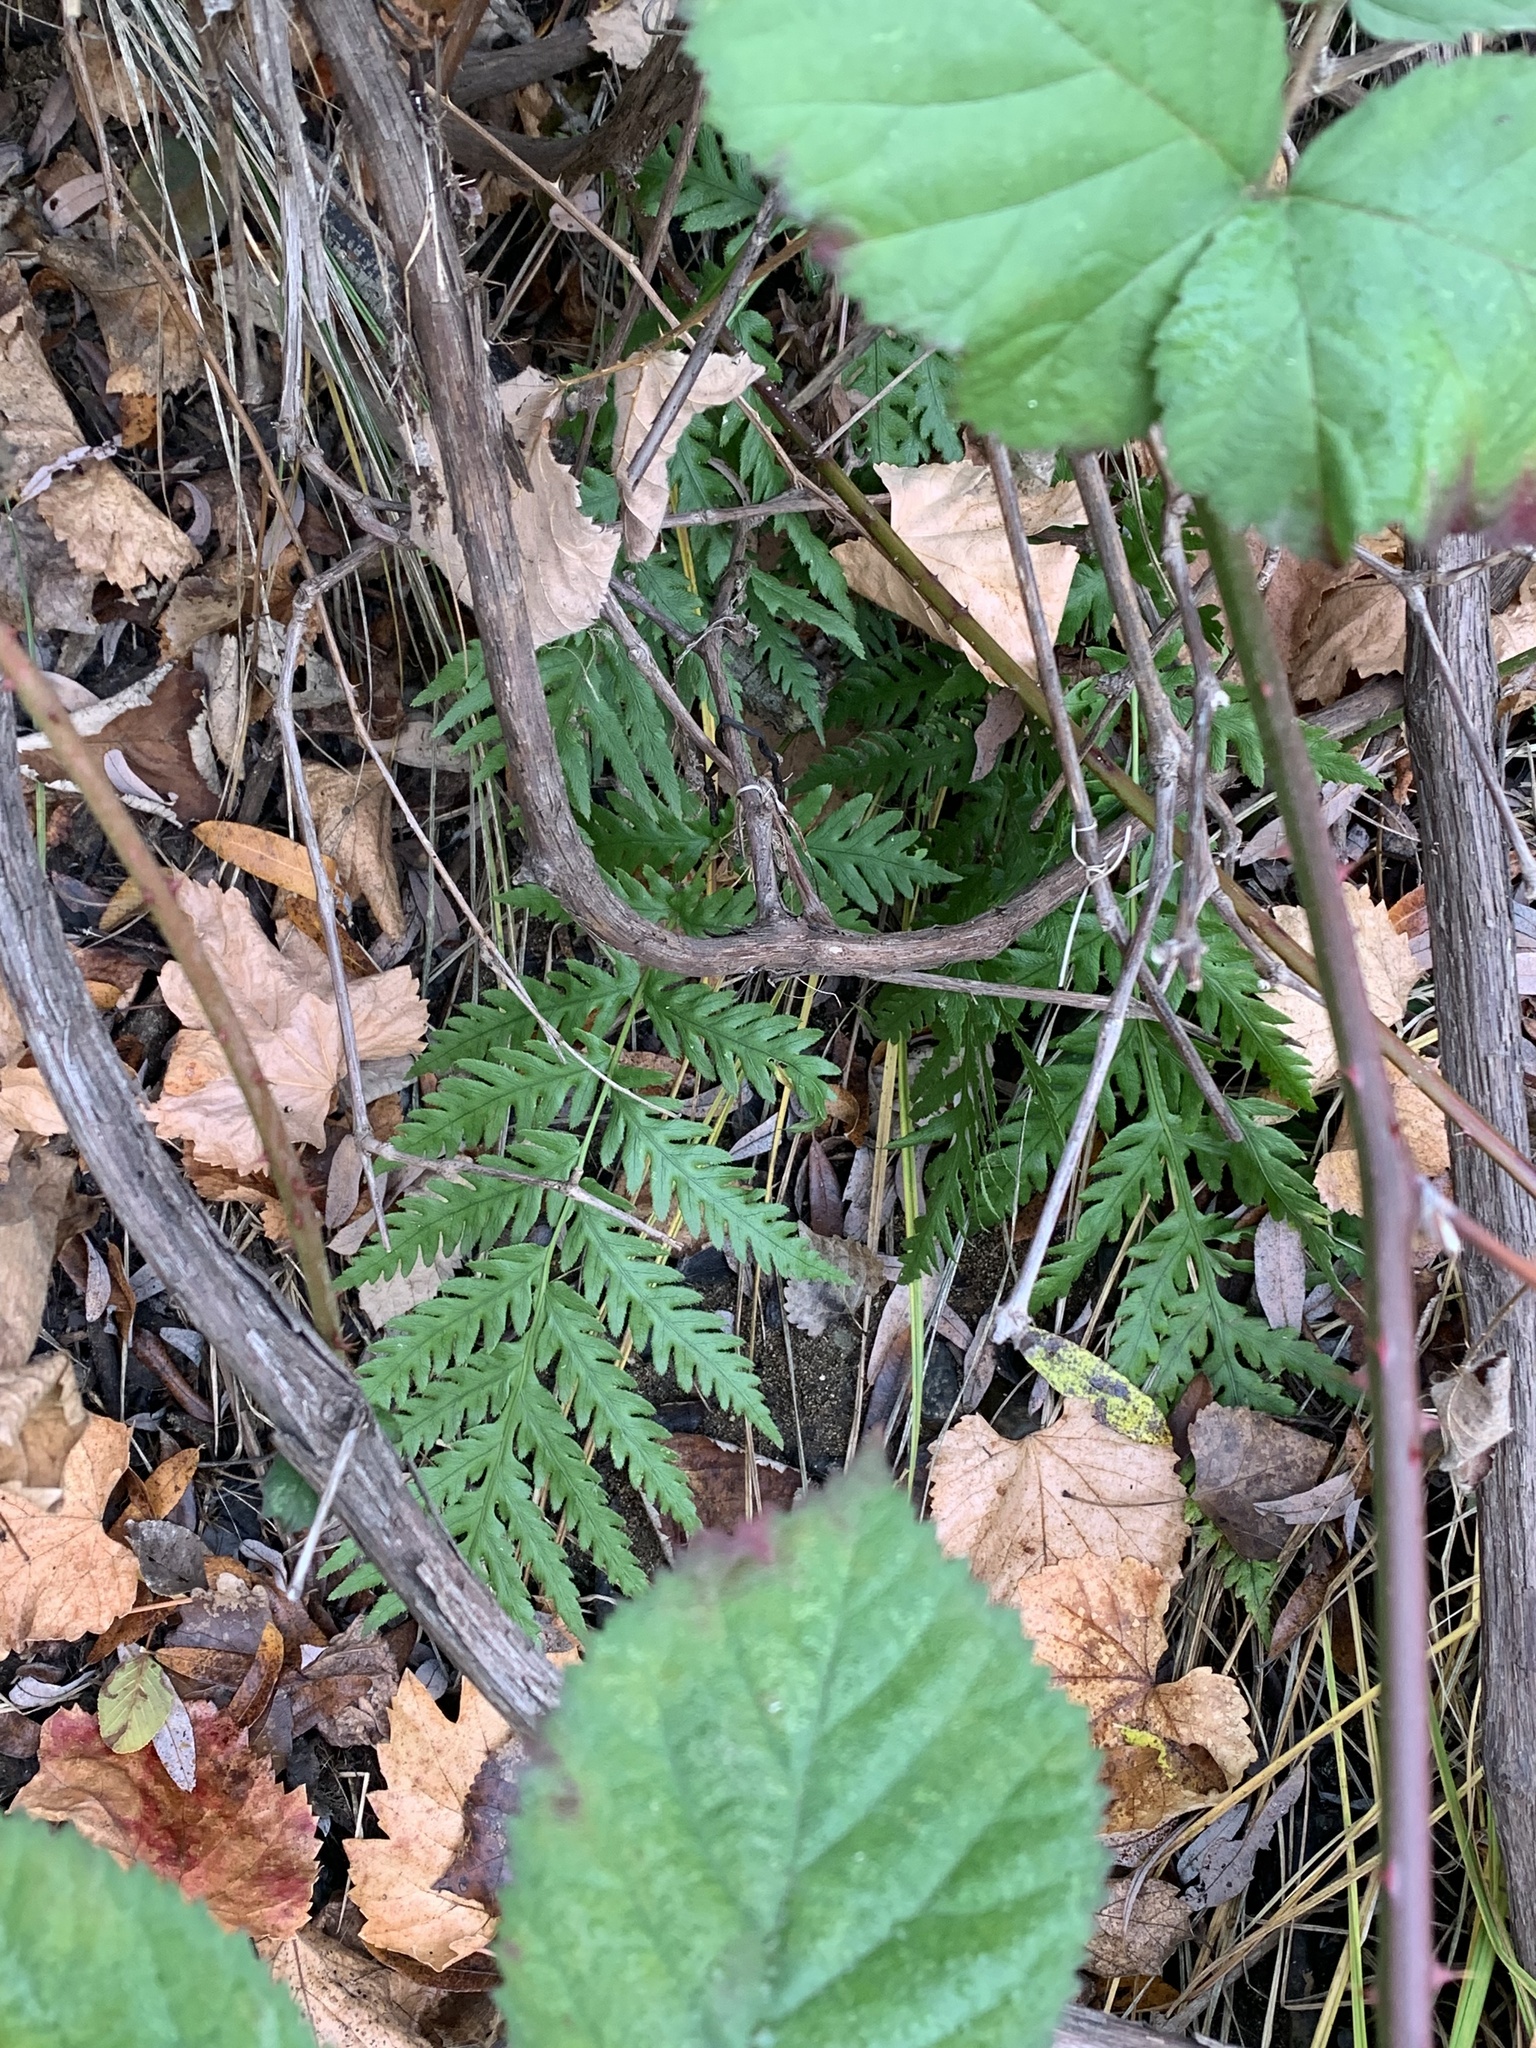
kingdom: Plantae
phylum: Tracheophyta
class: Polypodiopsida
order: Polypodiales
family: Blechnaceae
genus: Woodwardia
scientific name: Woodwardia fimbriata
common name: Giant chain fern
